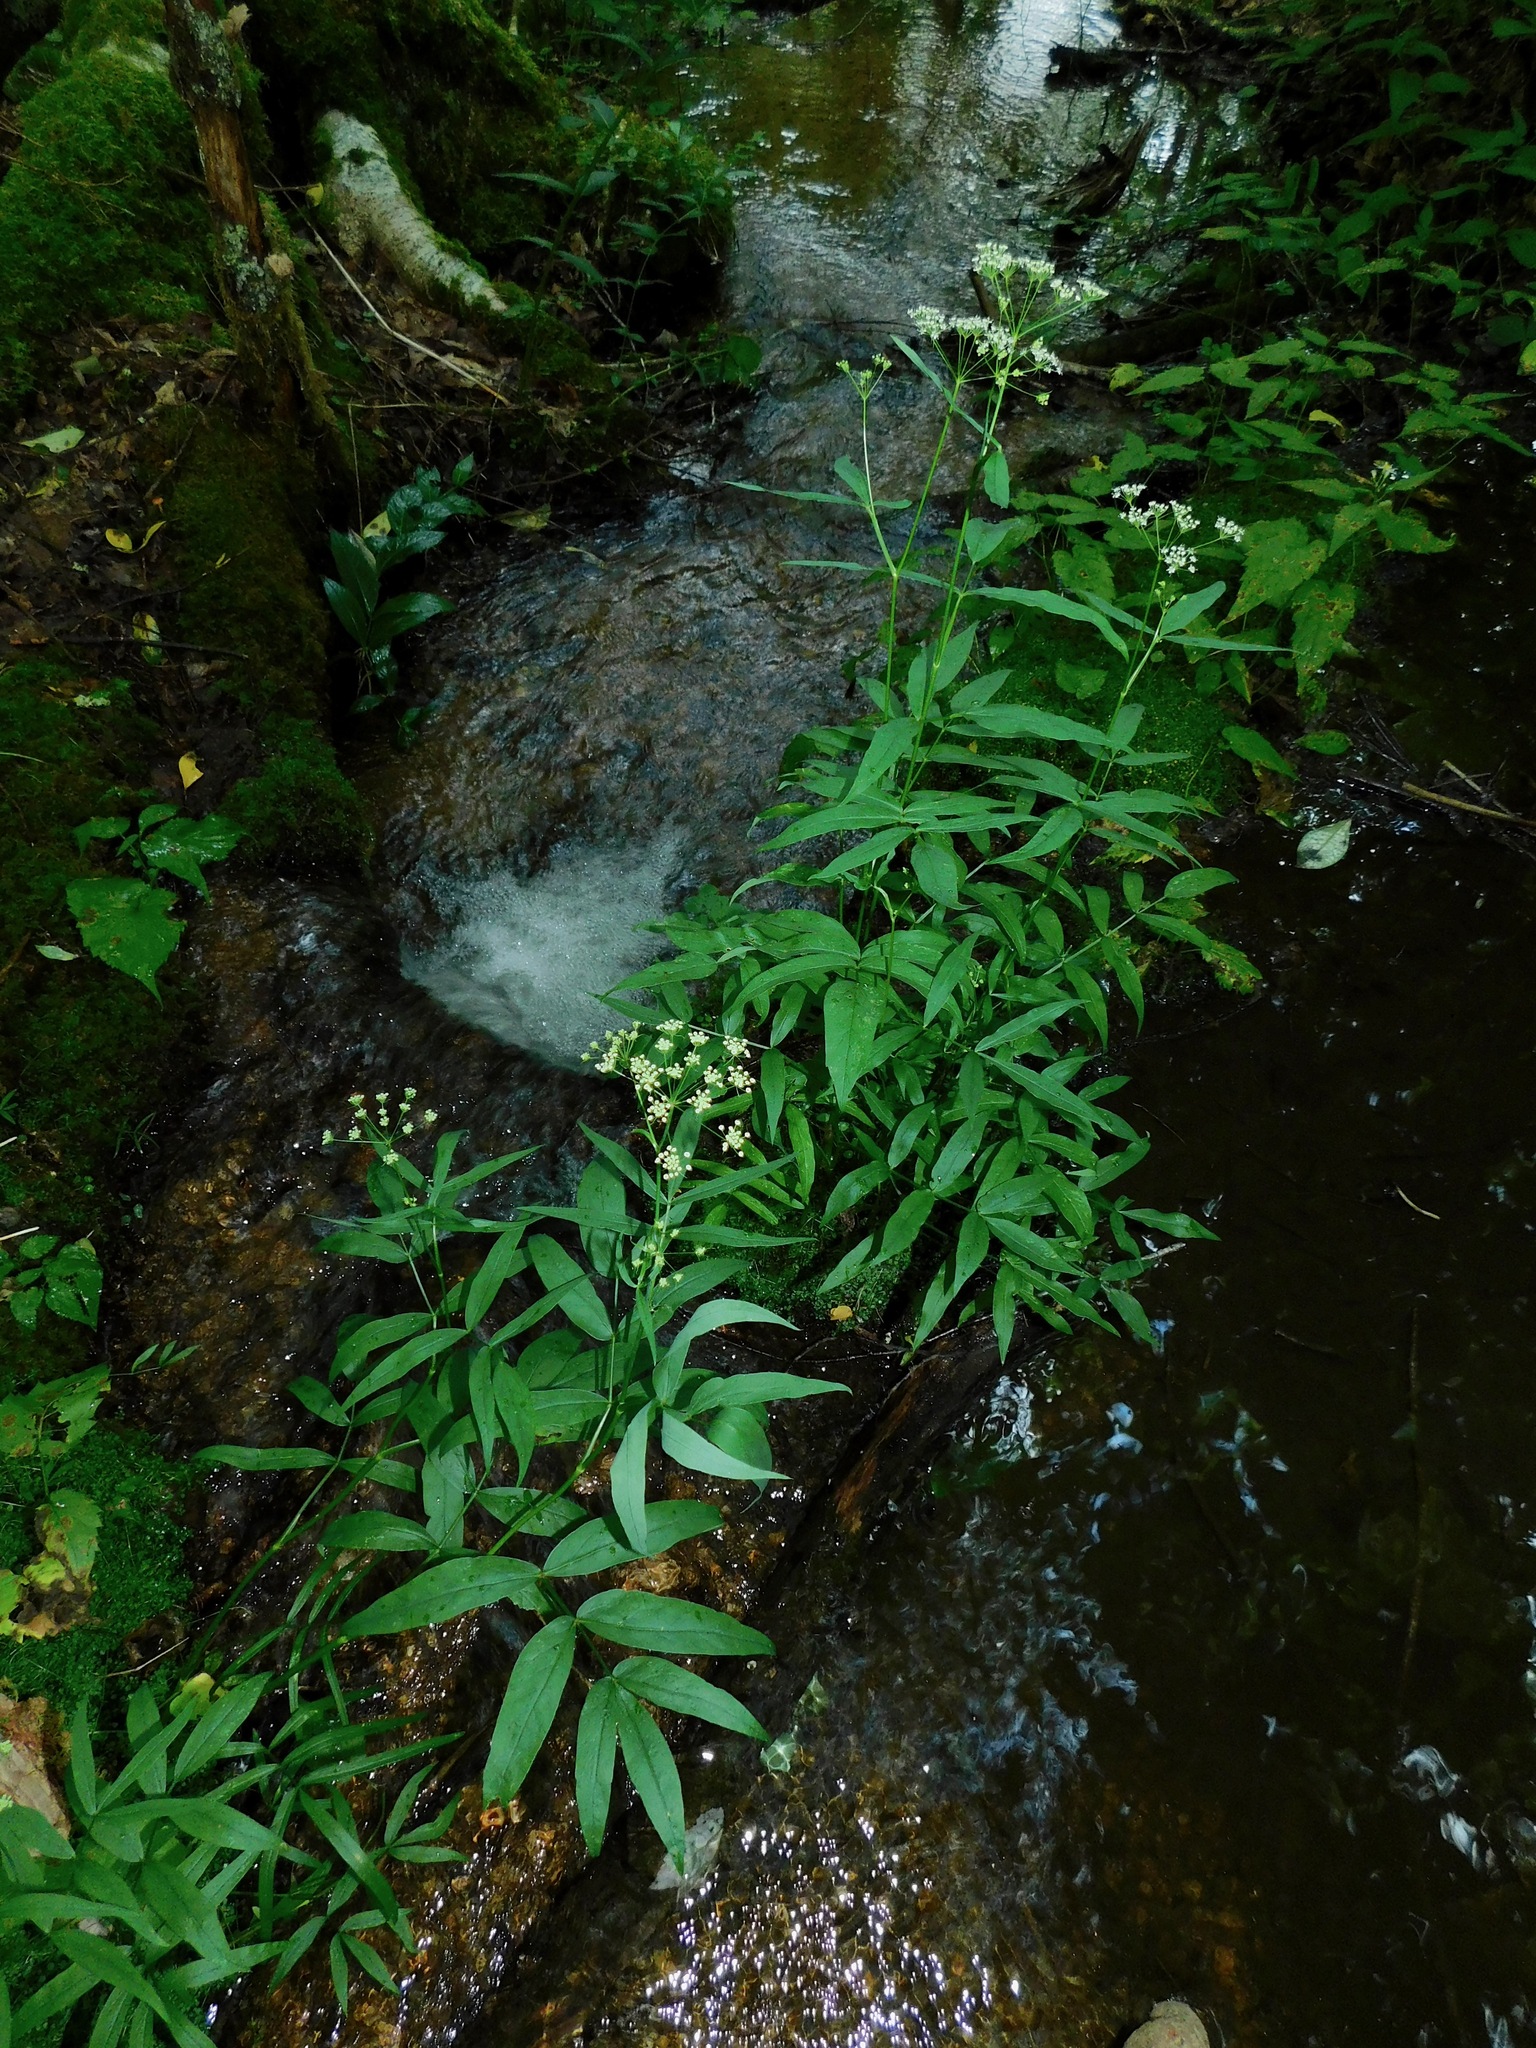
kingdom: Plantae
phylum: Tracheophyta
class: Magnoliopsida
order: Apiales
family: Apiaceae
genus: Oxypolis
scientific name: Oxypolis rigidior
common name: Cowbane
